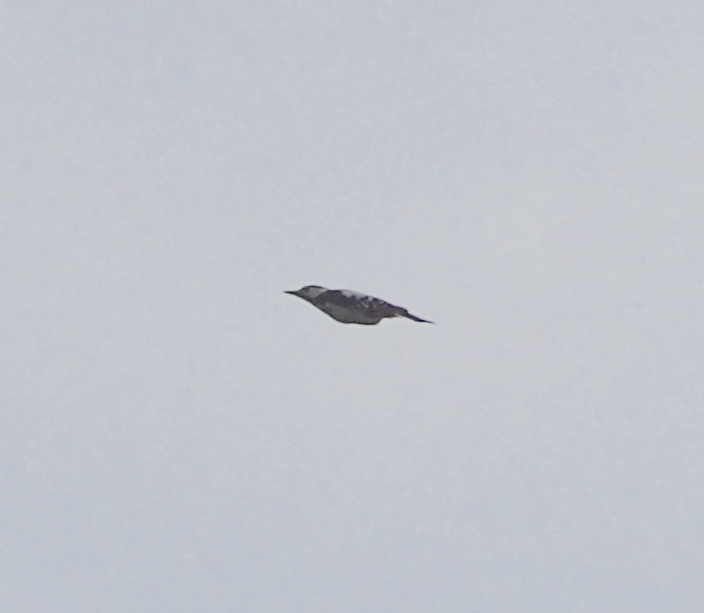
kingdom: Animalia
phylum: Chordata
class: Aves
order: Piciformes
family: Picidae
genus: Dendrocopos
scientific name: Dendrocopos syriacus
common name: Syrian woodpecker
